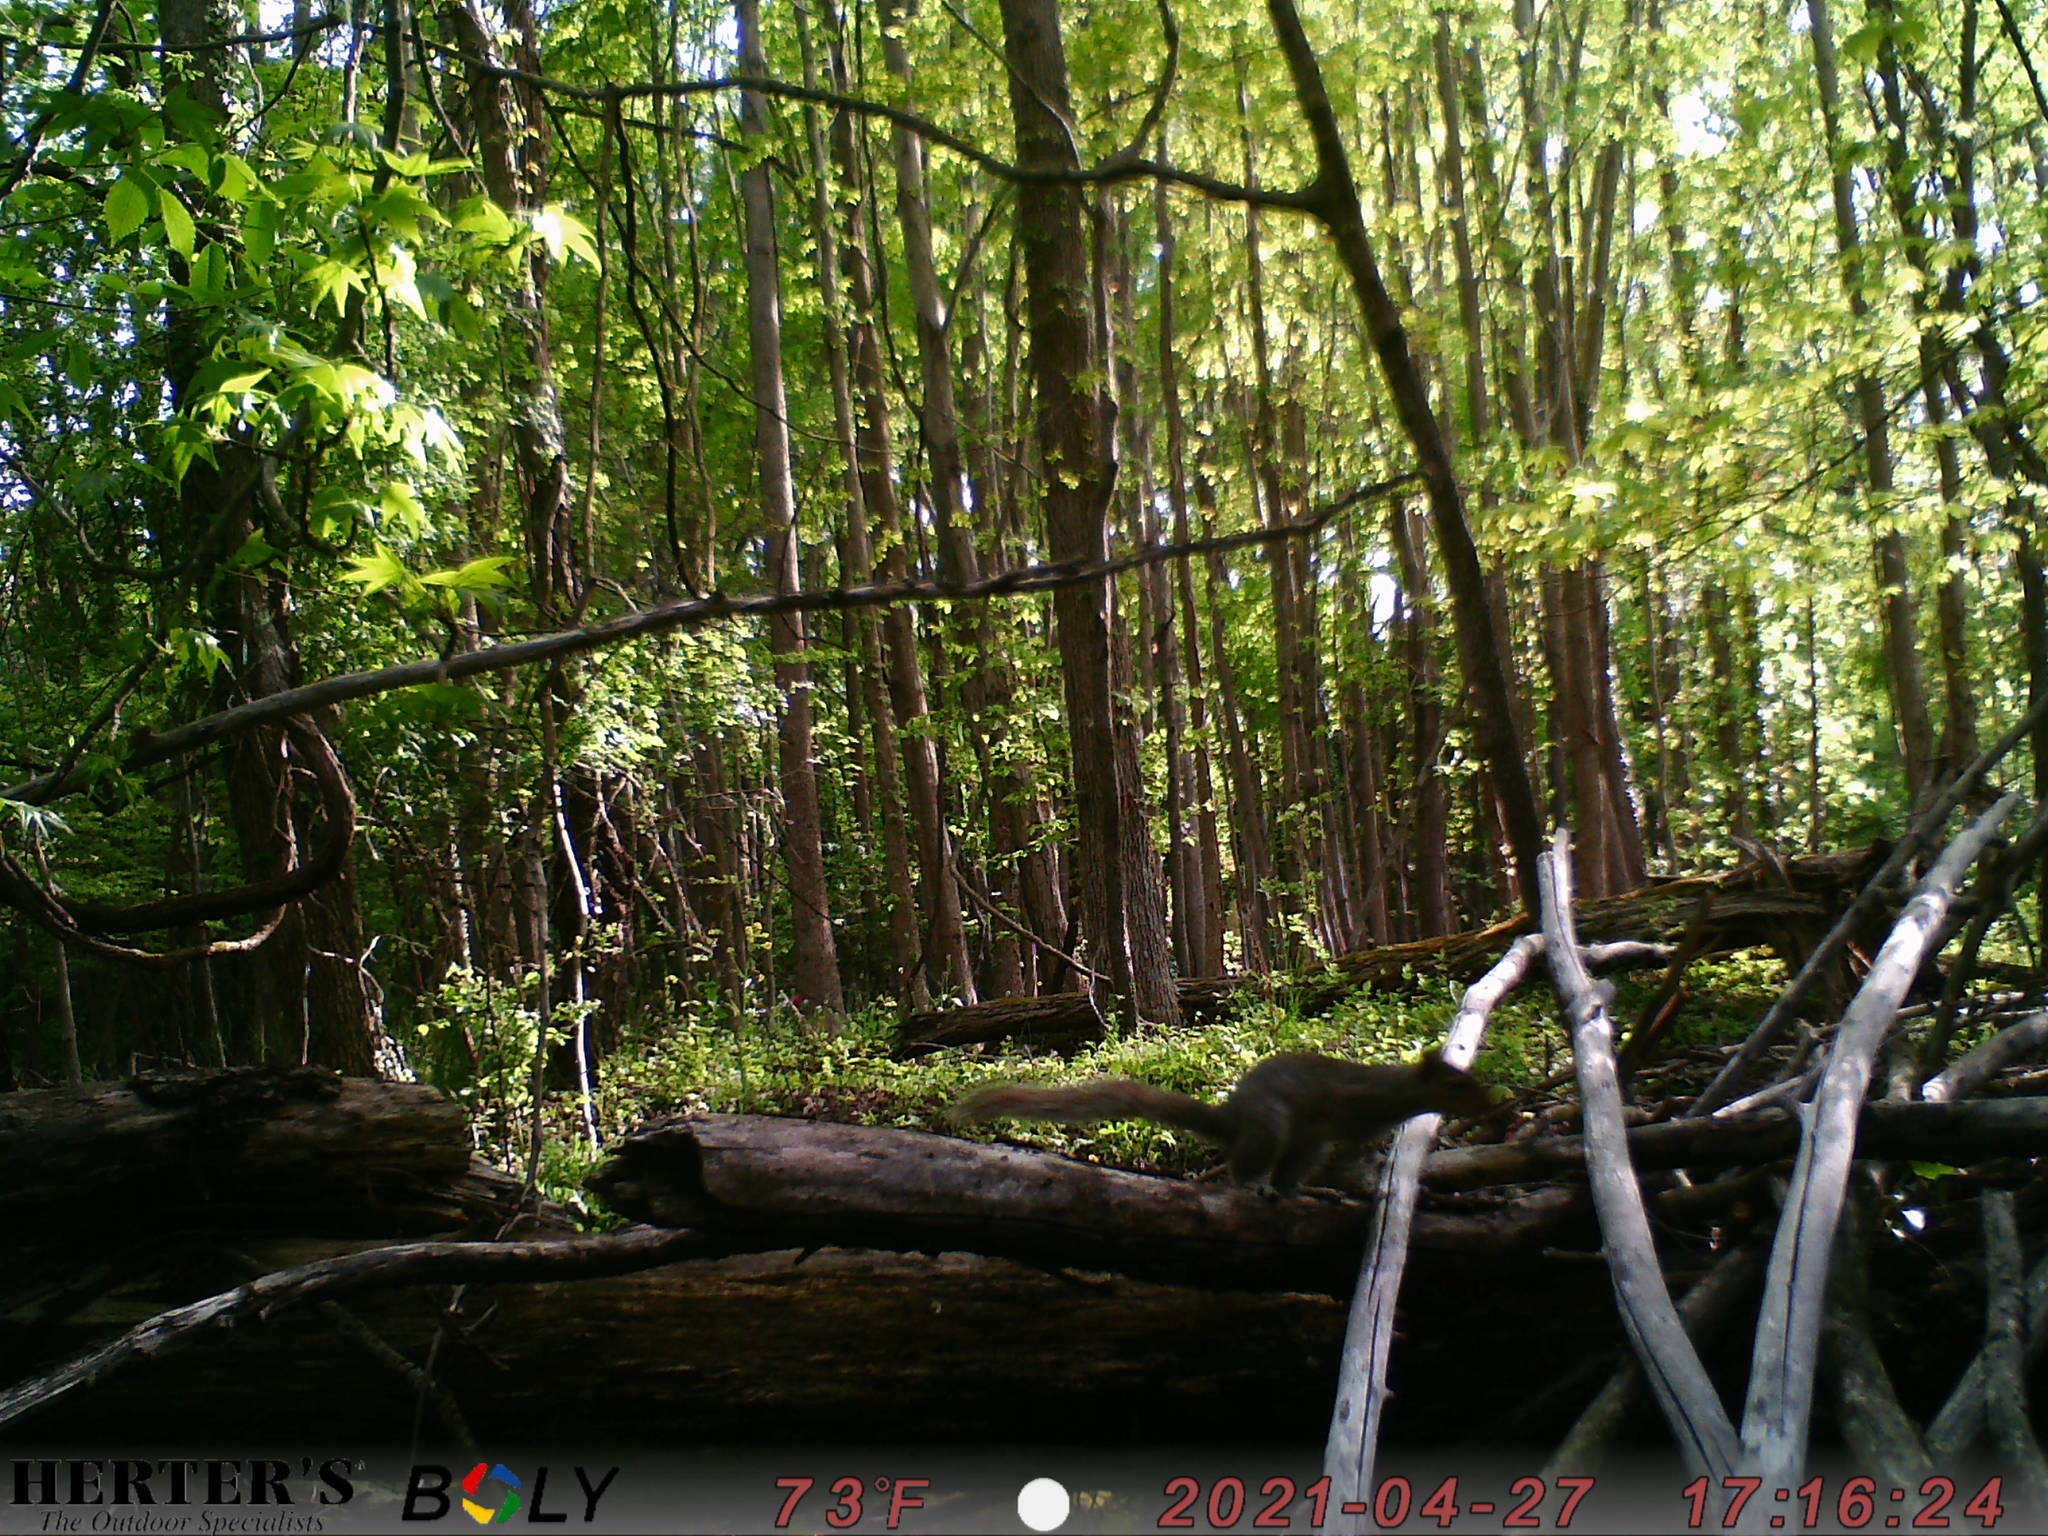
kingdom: Animalia
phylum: Chordata
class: Mammalia
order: Rodentia
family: Sciuridae
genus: Sciurus
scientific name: Sciurus carolinensis
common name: Eastern gray squirrel
